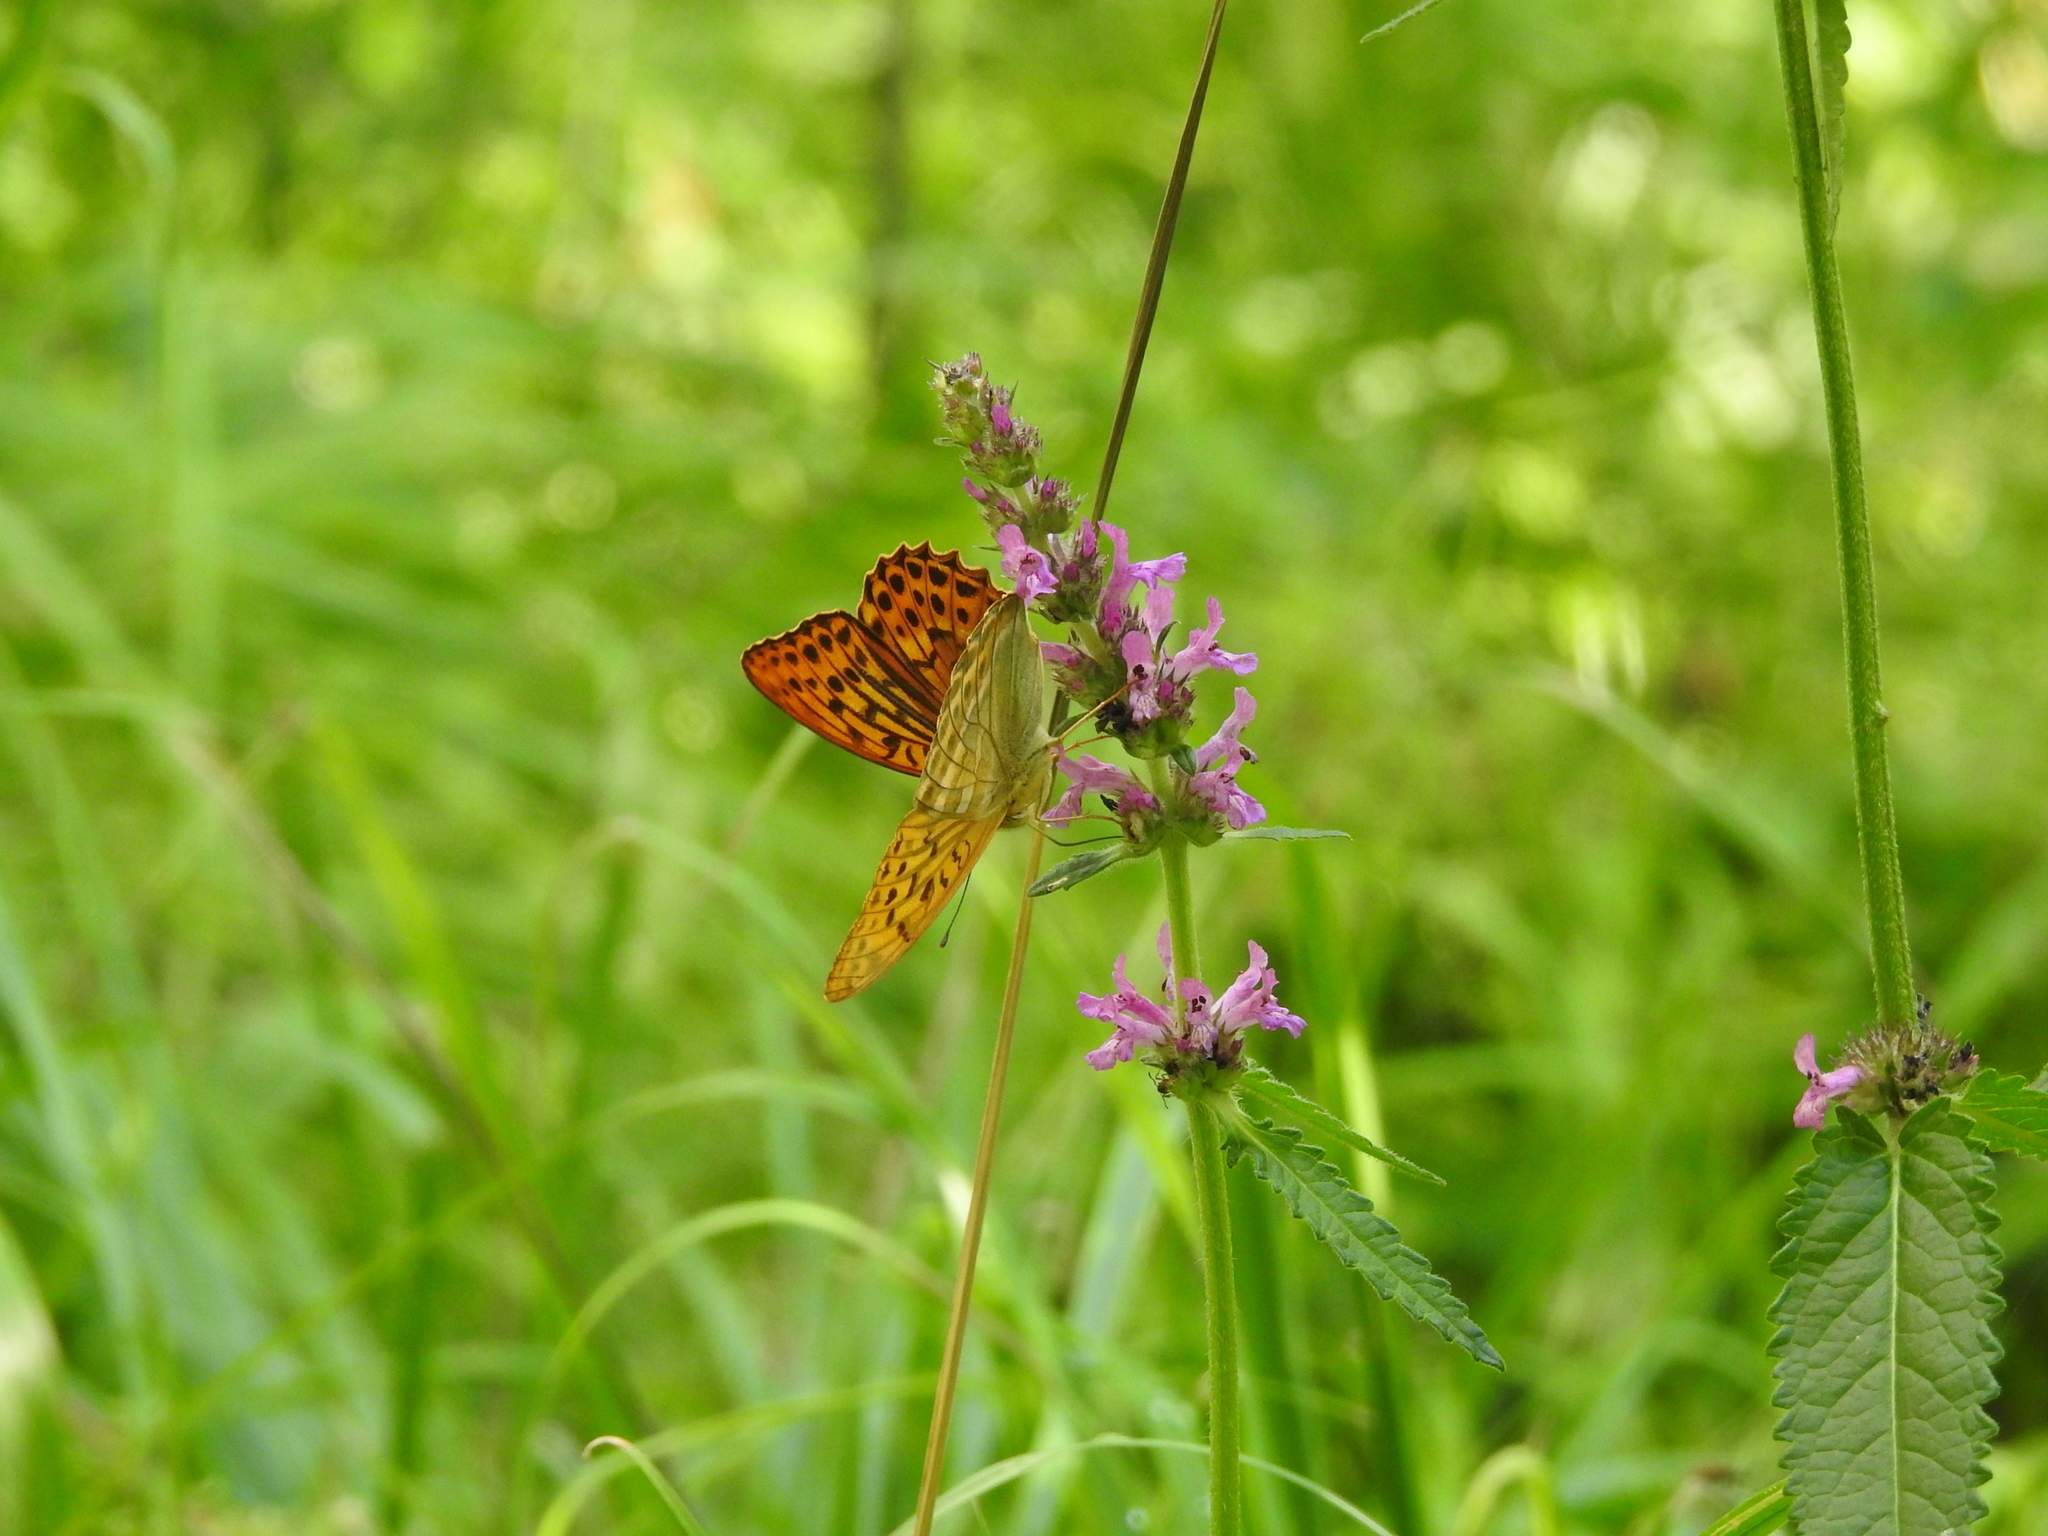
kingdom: Animalia
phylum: Arthropoda
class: Insecta
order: Lepidoptera
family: Nymphalidae
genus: Argynnis
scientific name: Argynnis paphia
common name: Silver-washed fritillary
